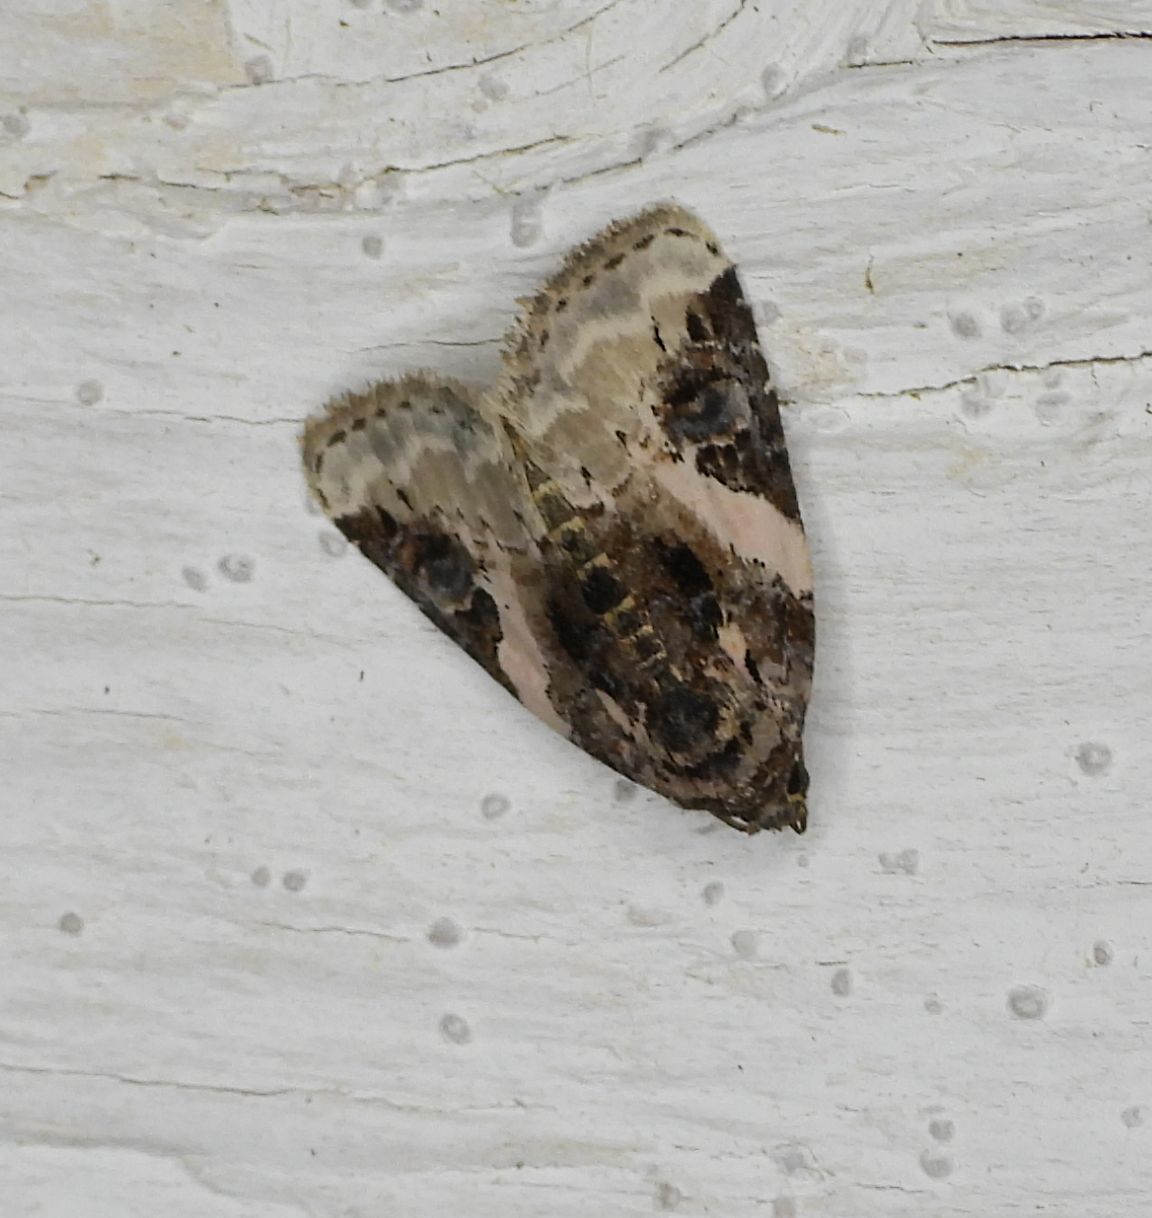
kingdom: Animalia
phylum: Arthropoda
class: Insecta
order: Lepidoptera
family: Noctuidae
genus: Pseudeustrotia
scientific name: Pseudeustrotia carneola
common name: Pink-barred lithacodia moth
